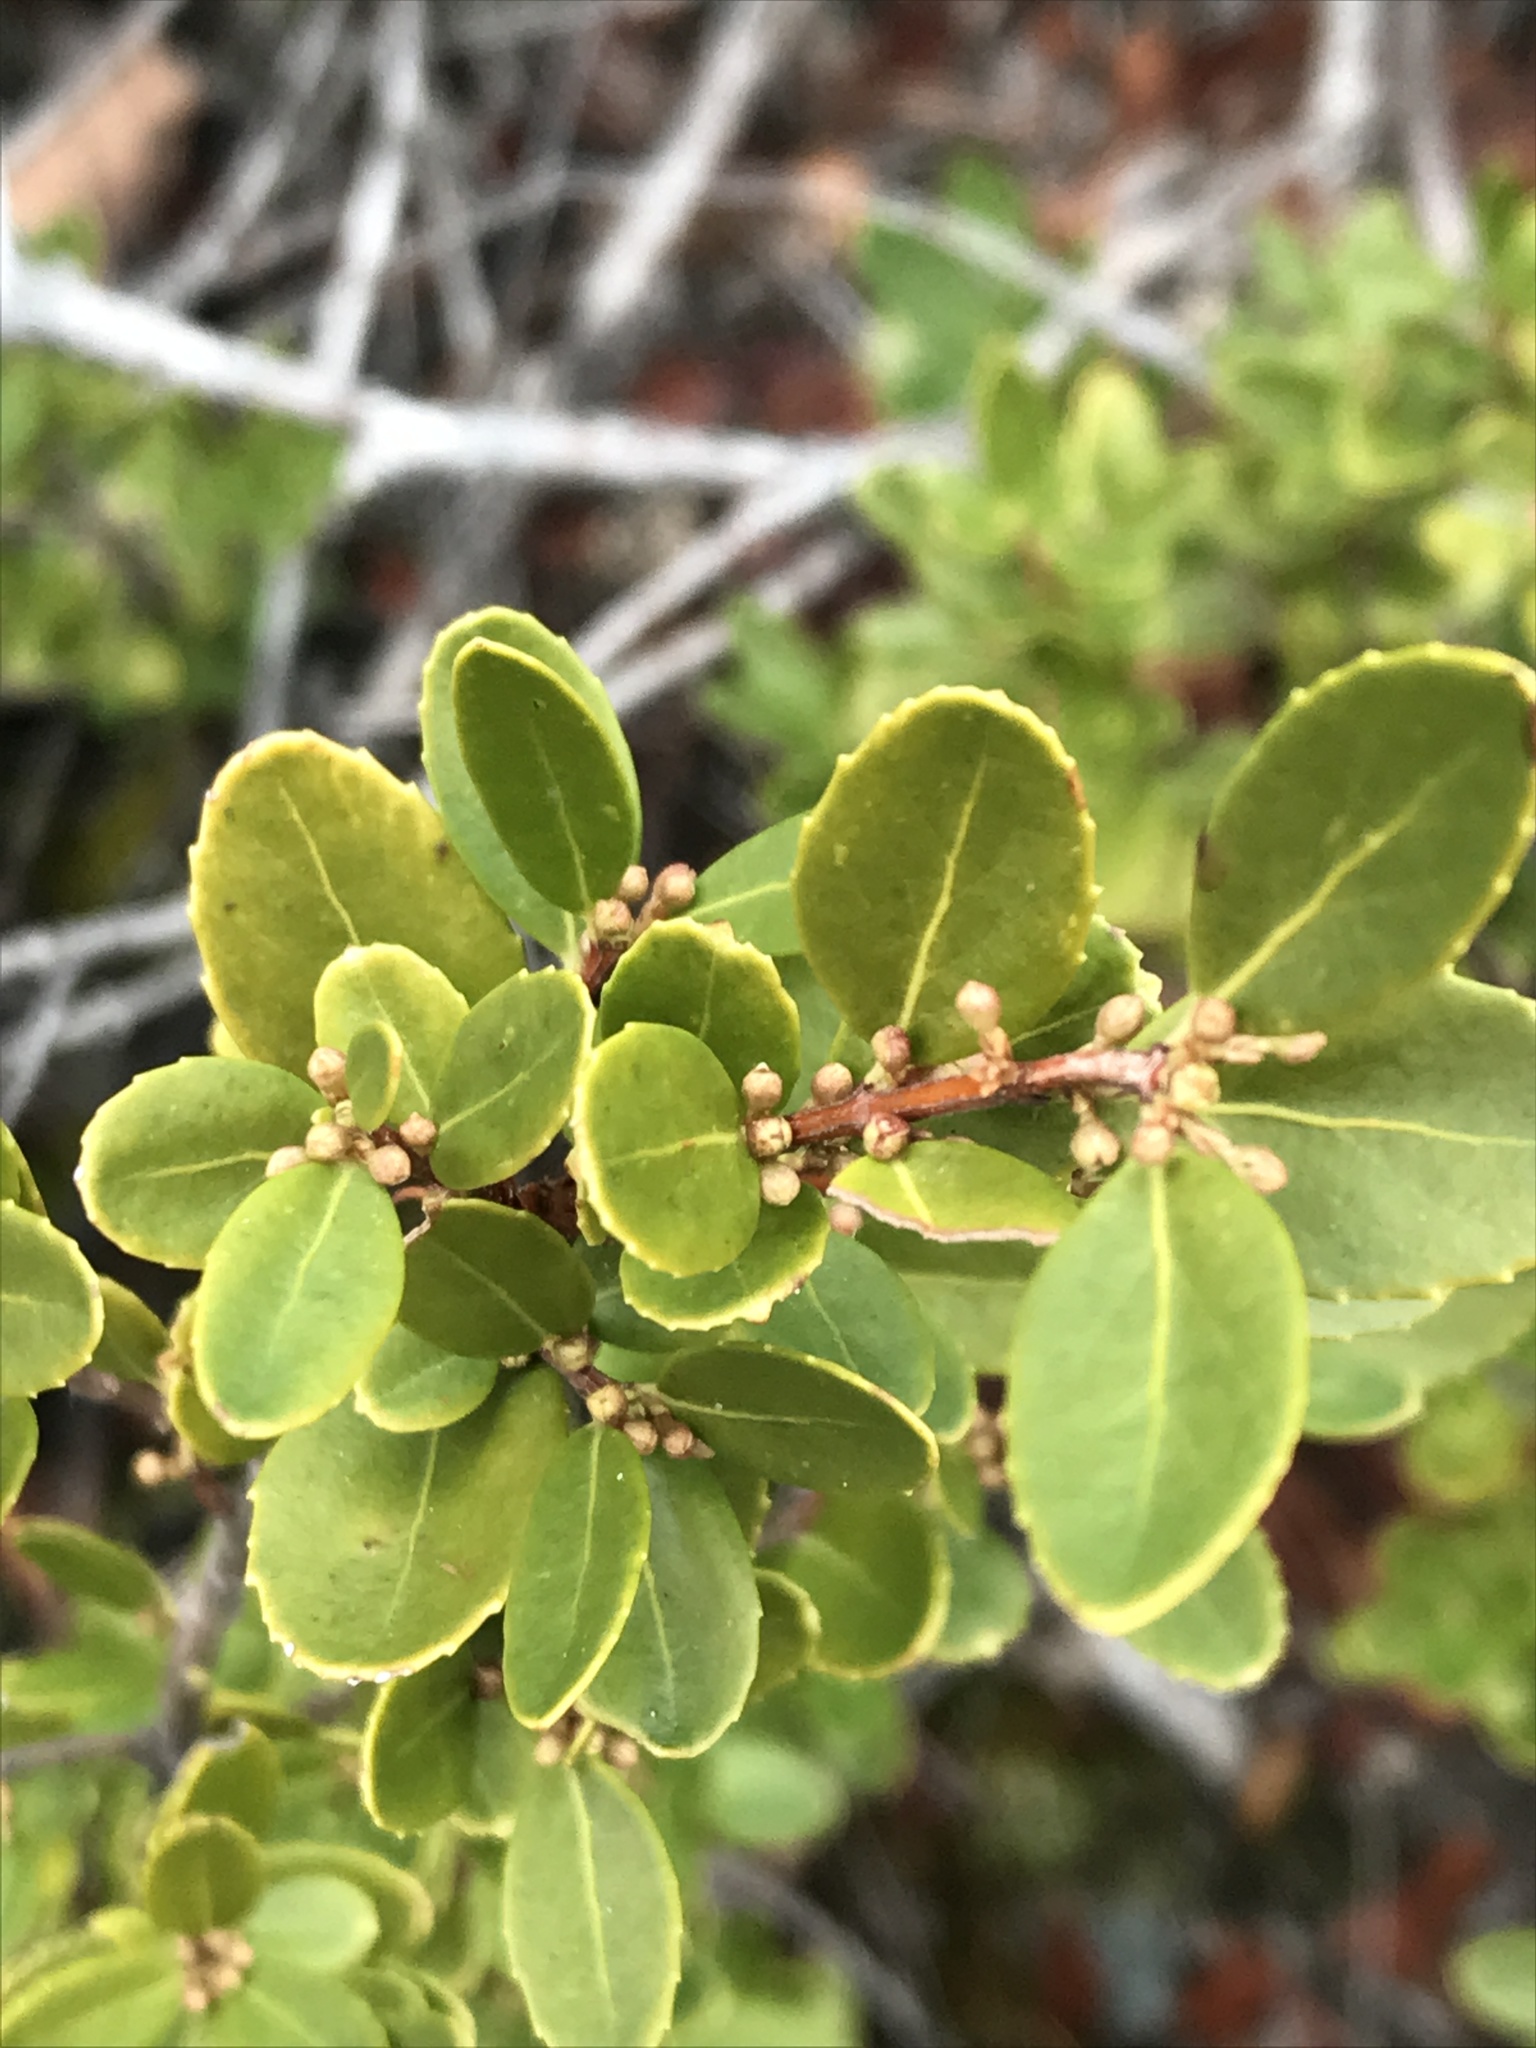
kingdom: Plantae
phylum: Tracheophyta
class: Magnoliopsida
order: Celastrales
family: Celastraceae
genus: Paxistima
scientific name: Paxistima myrsinites
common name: Mountain-lover
